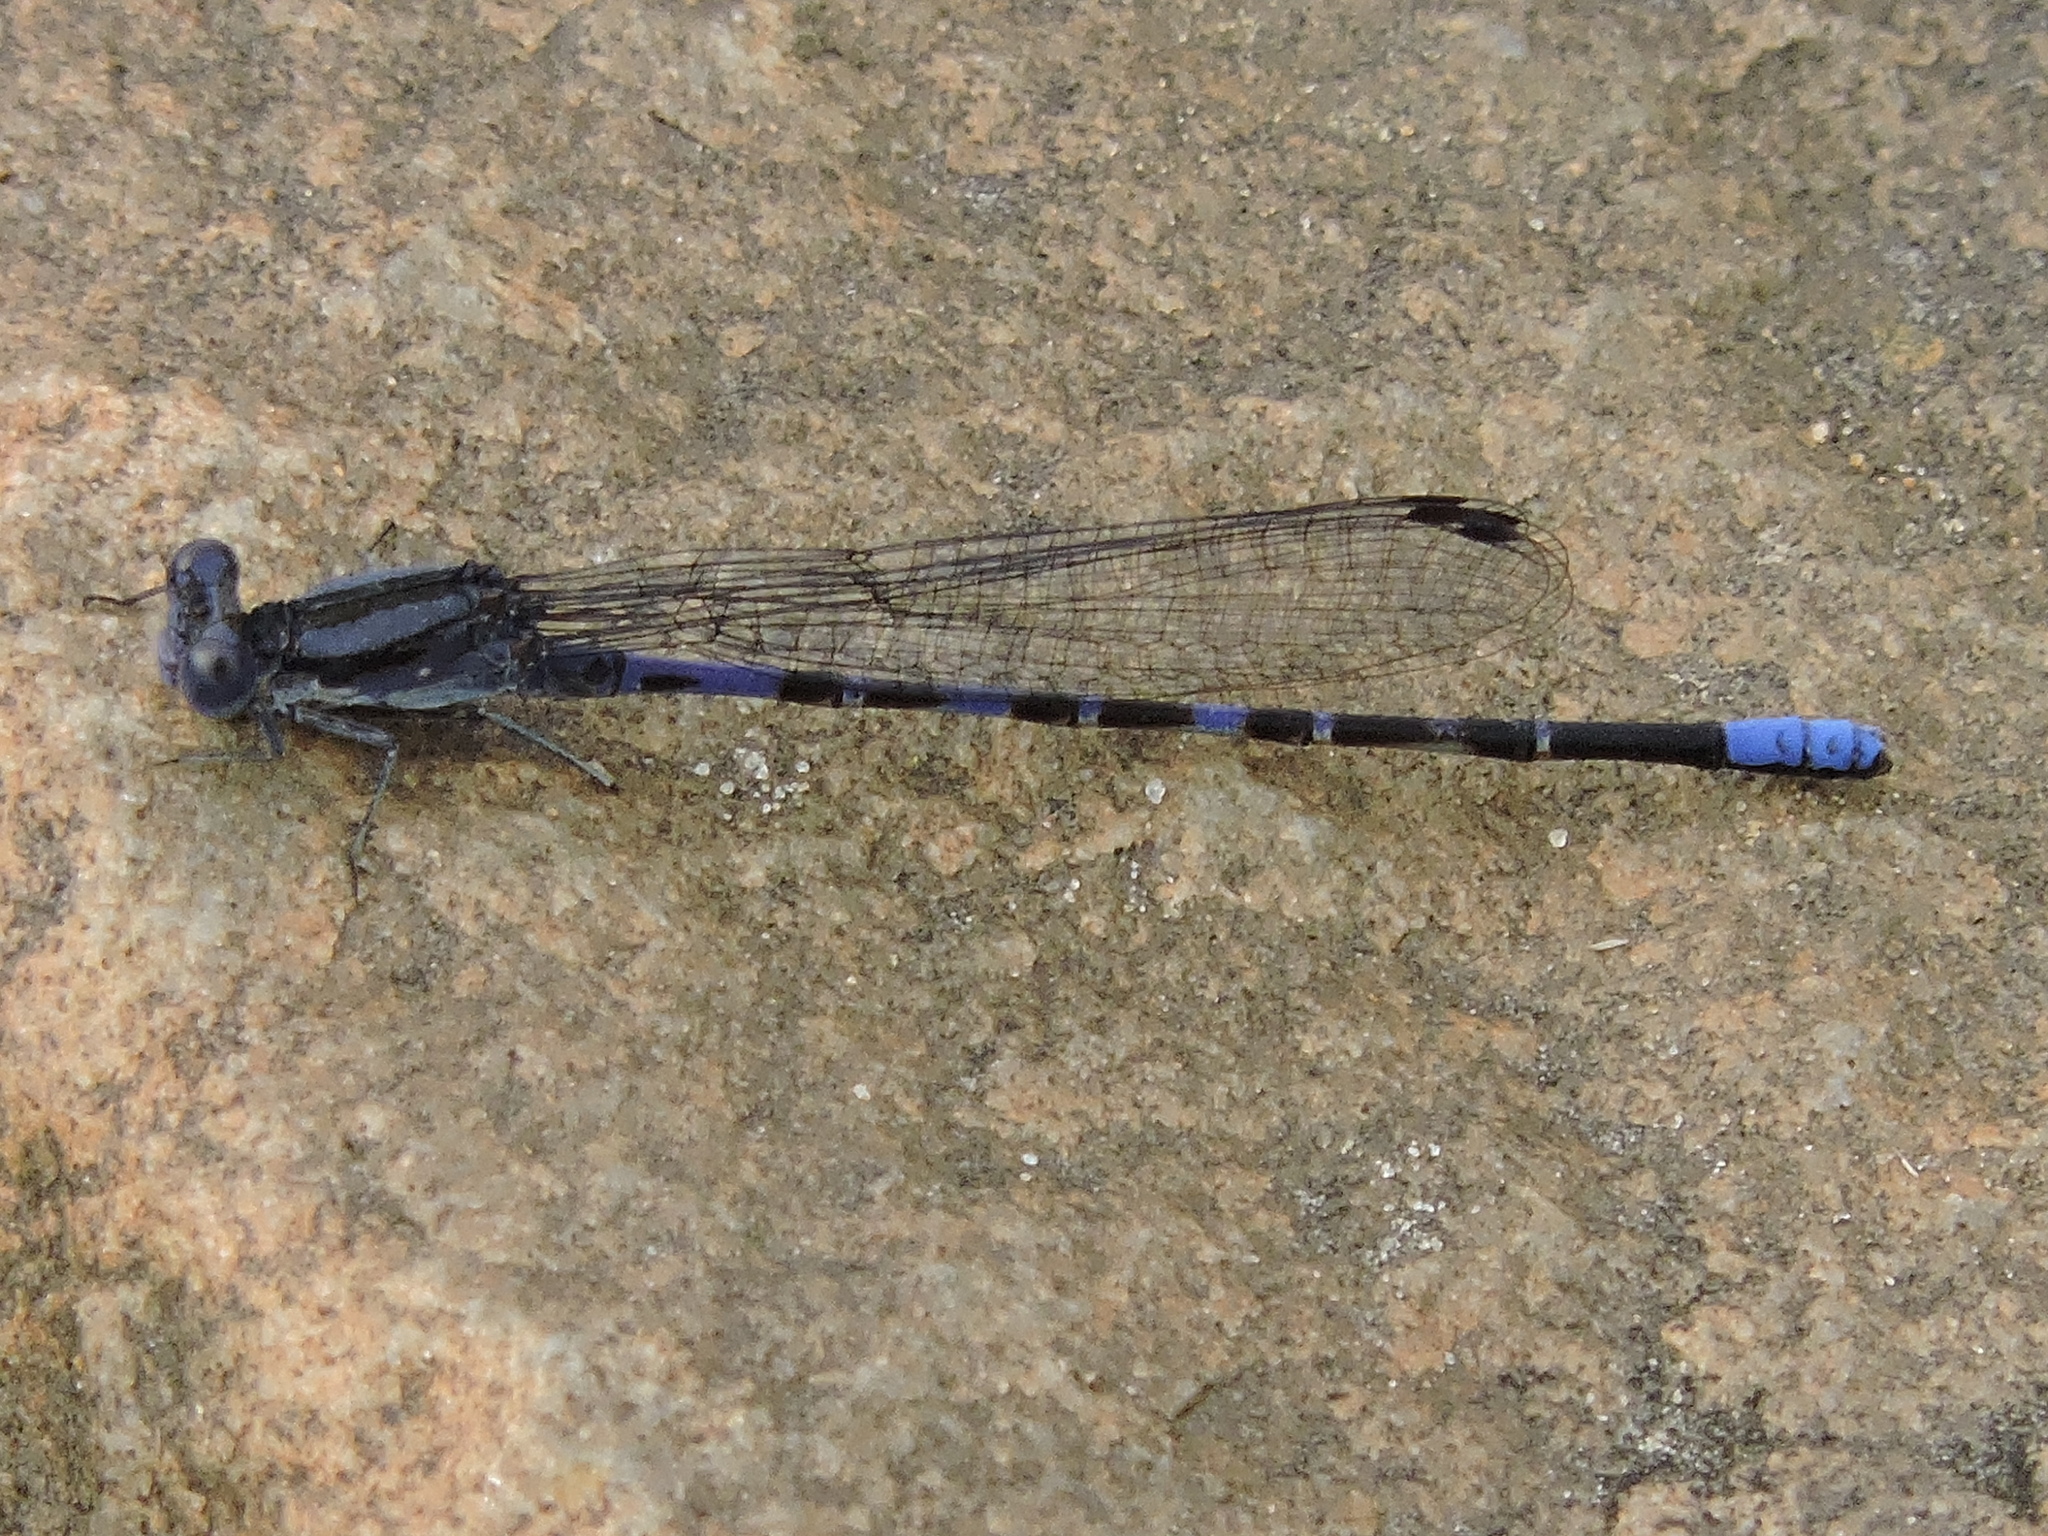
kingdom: Animalia
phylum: Arthropoda
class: Insecta
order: Odonata
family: Coenagrionidae
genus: Argia
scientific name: Argia immunda
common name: Kiowa dancer
